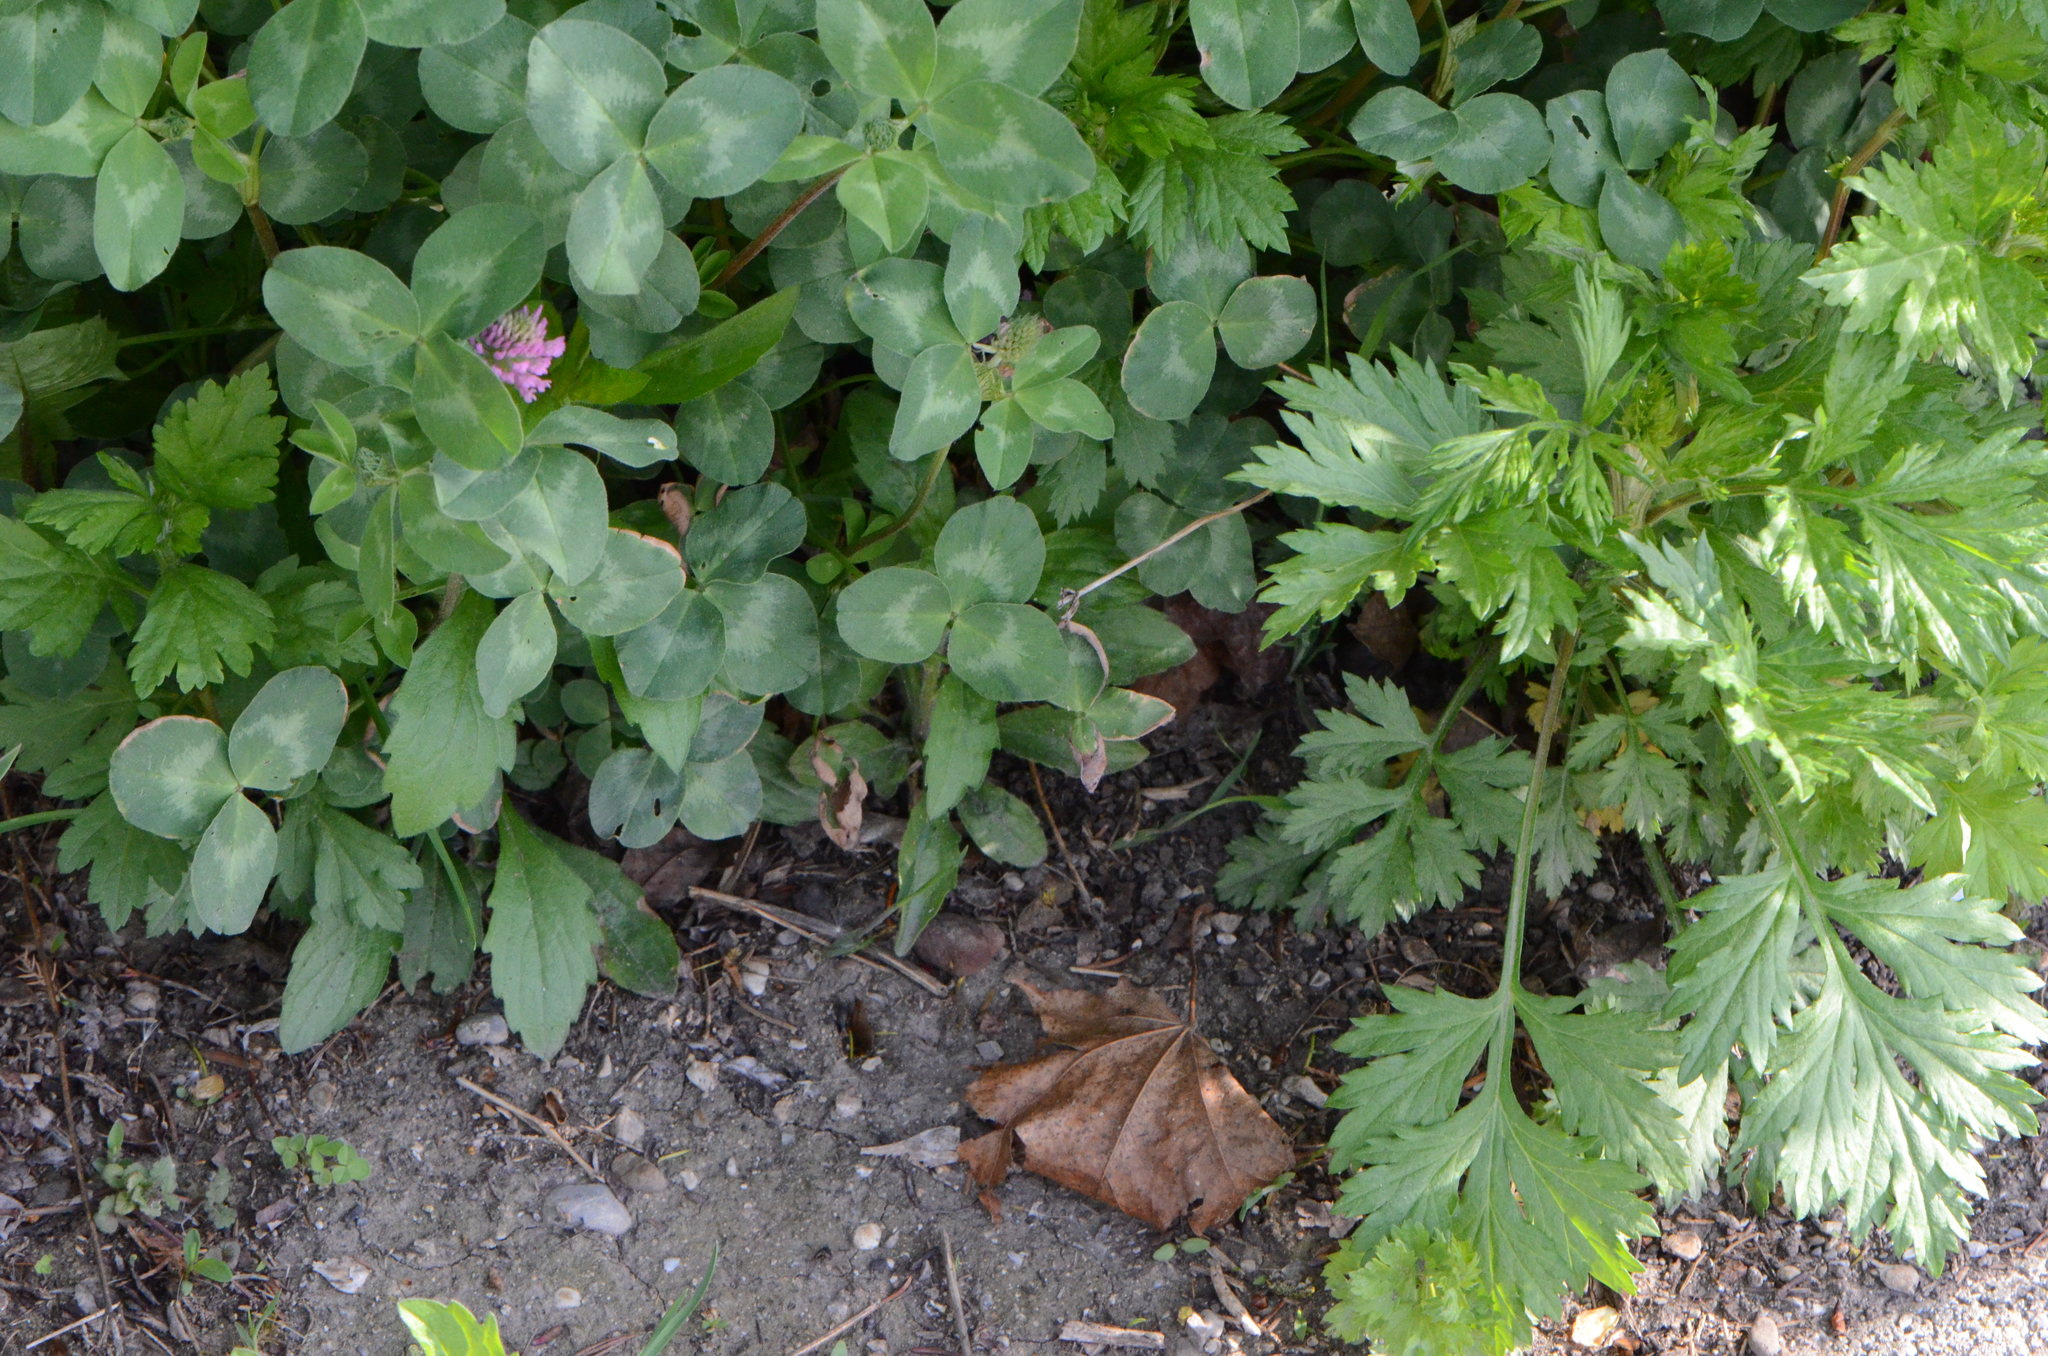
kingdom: Plantae
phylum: Tracheophyta
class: Magnoliopsida
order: Fabales
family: Fabaceae
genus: Trifolium
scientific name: Trifolium pratense
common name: Red clover
